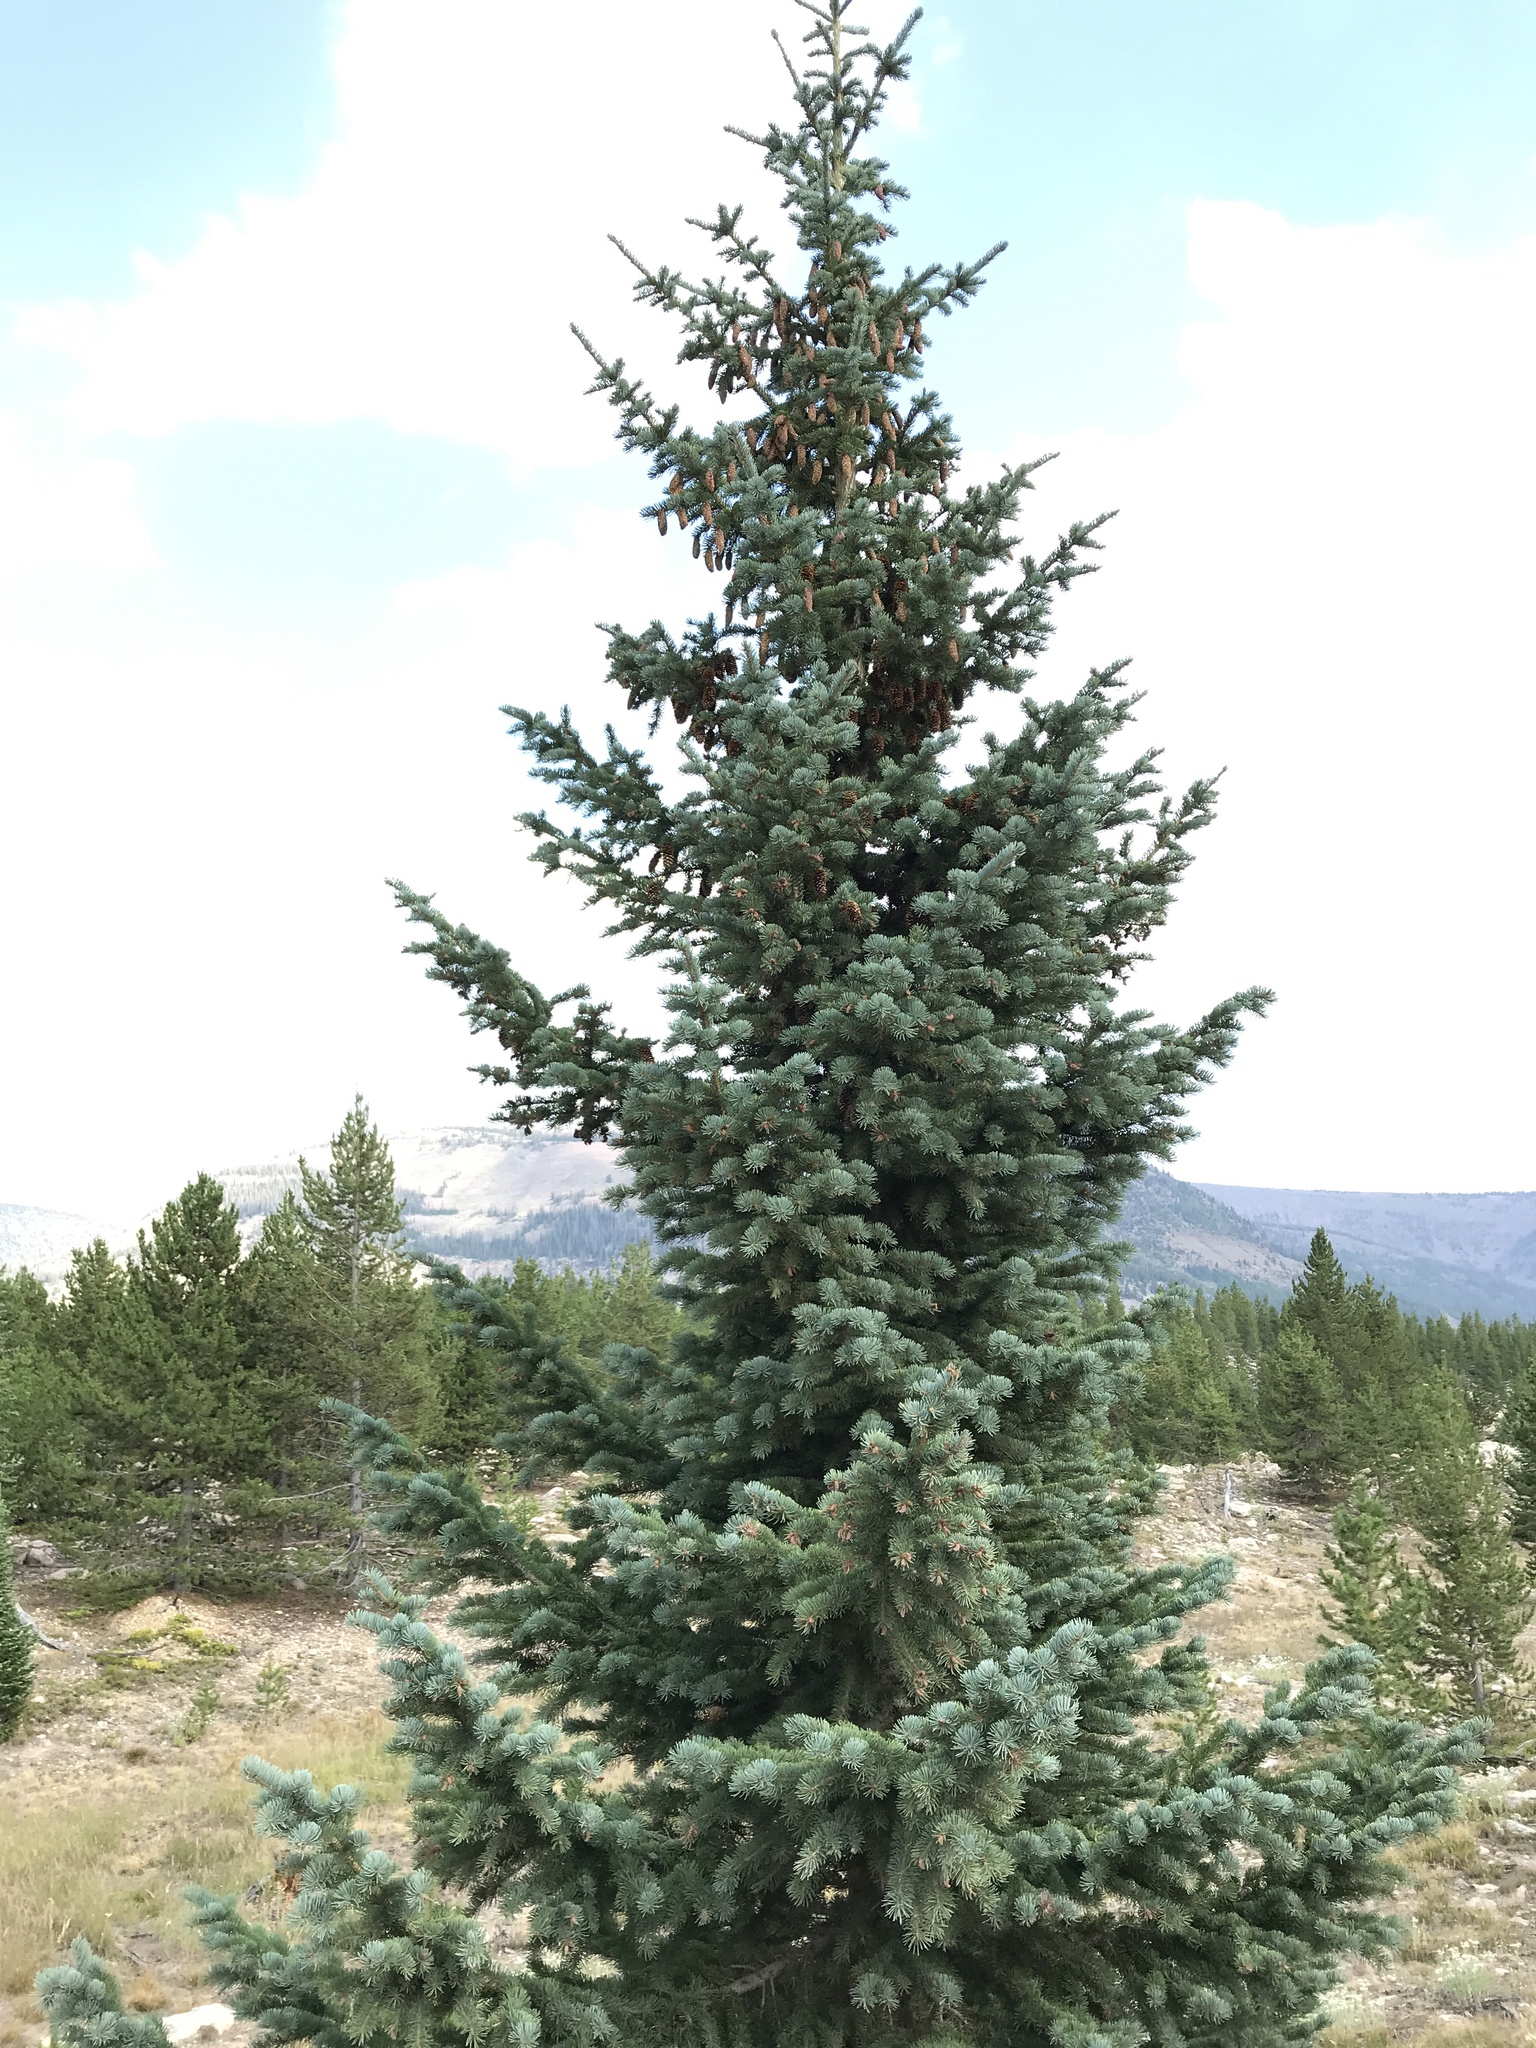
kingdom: Plantae
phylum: Tracheophyta
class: Pinopsida
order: Pinales
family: Pinaceae
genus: Picea
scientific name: Picea pungens
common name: Colorado spruce
